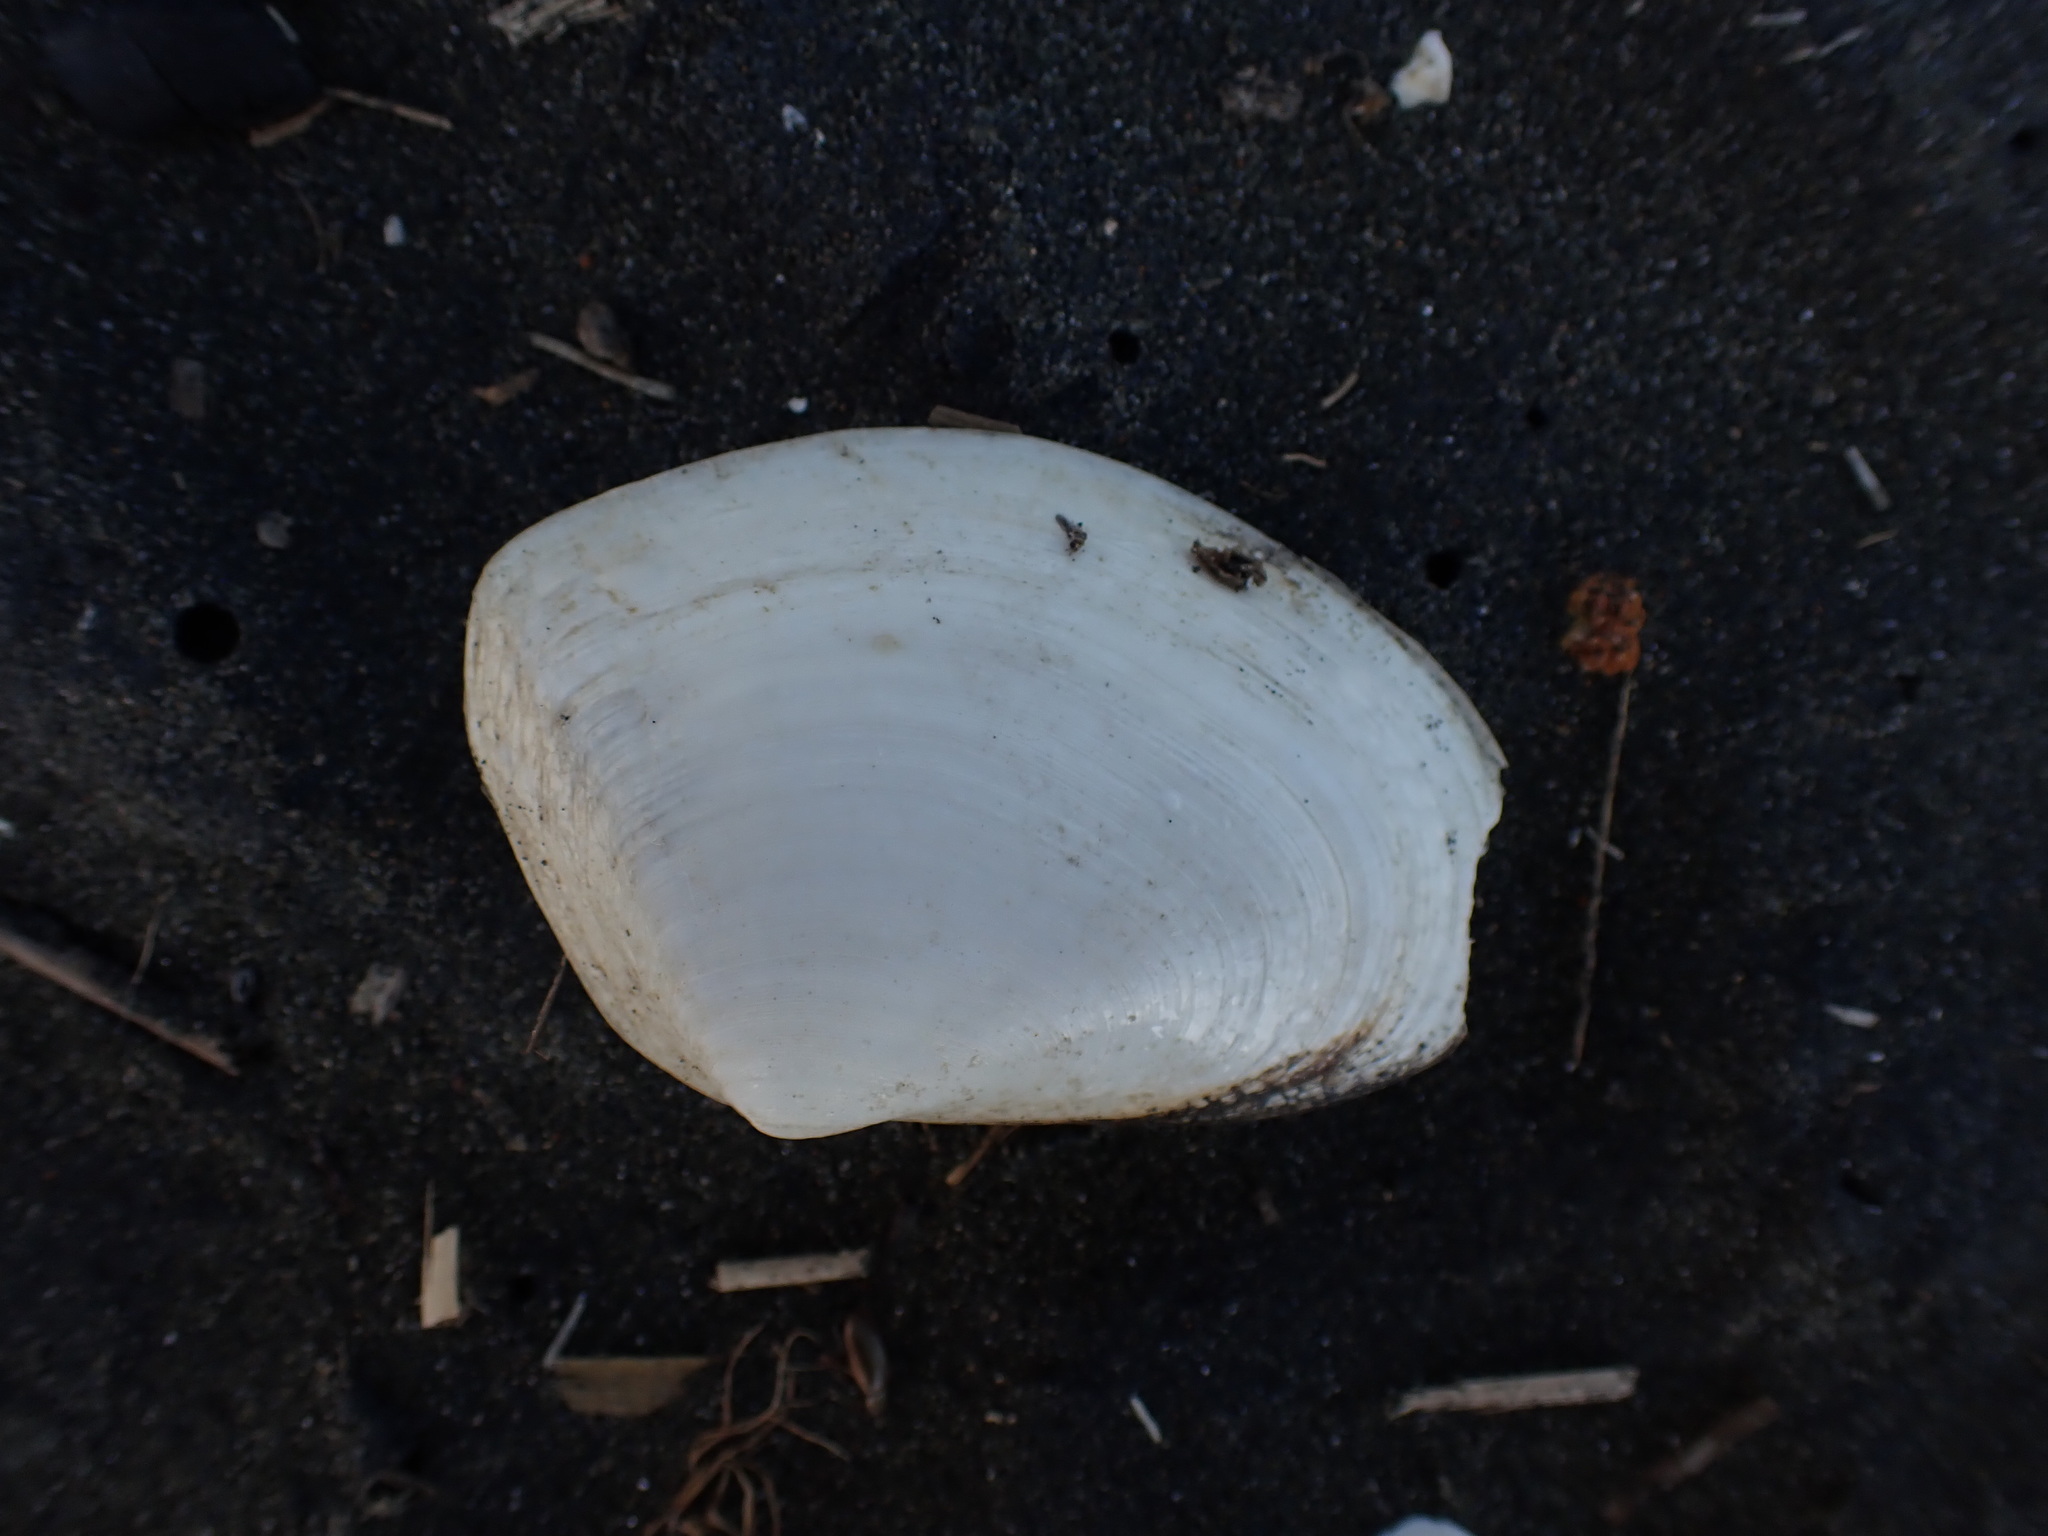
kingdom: Animalia
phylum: Mollusca
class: Bivalvia
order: Venerida
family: Mesodesmatidae
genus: Paphies
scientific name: Paphies ventricosa
